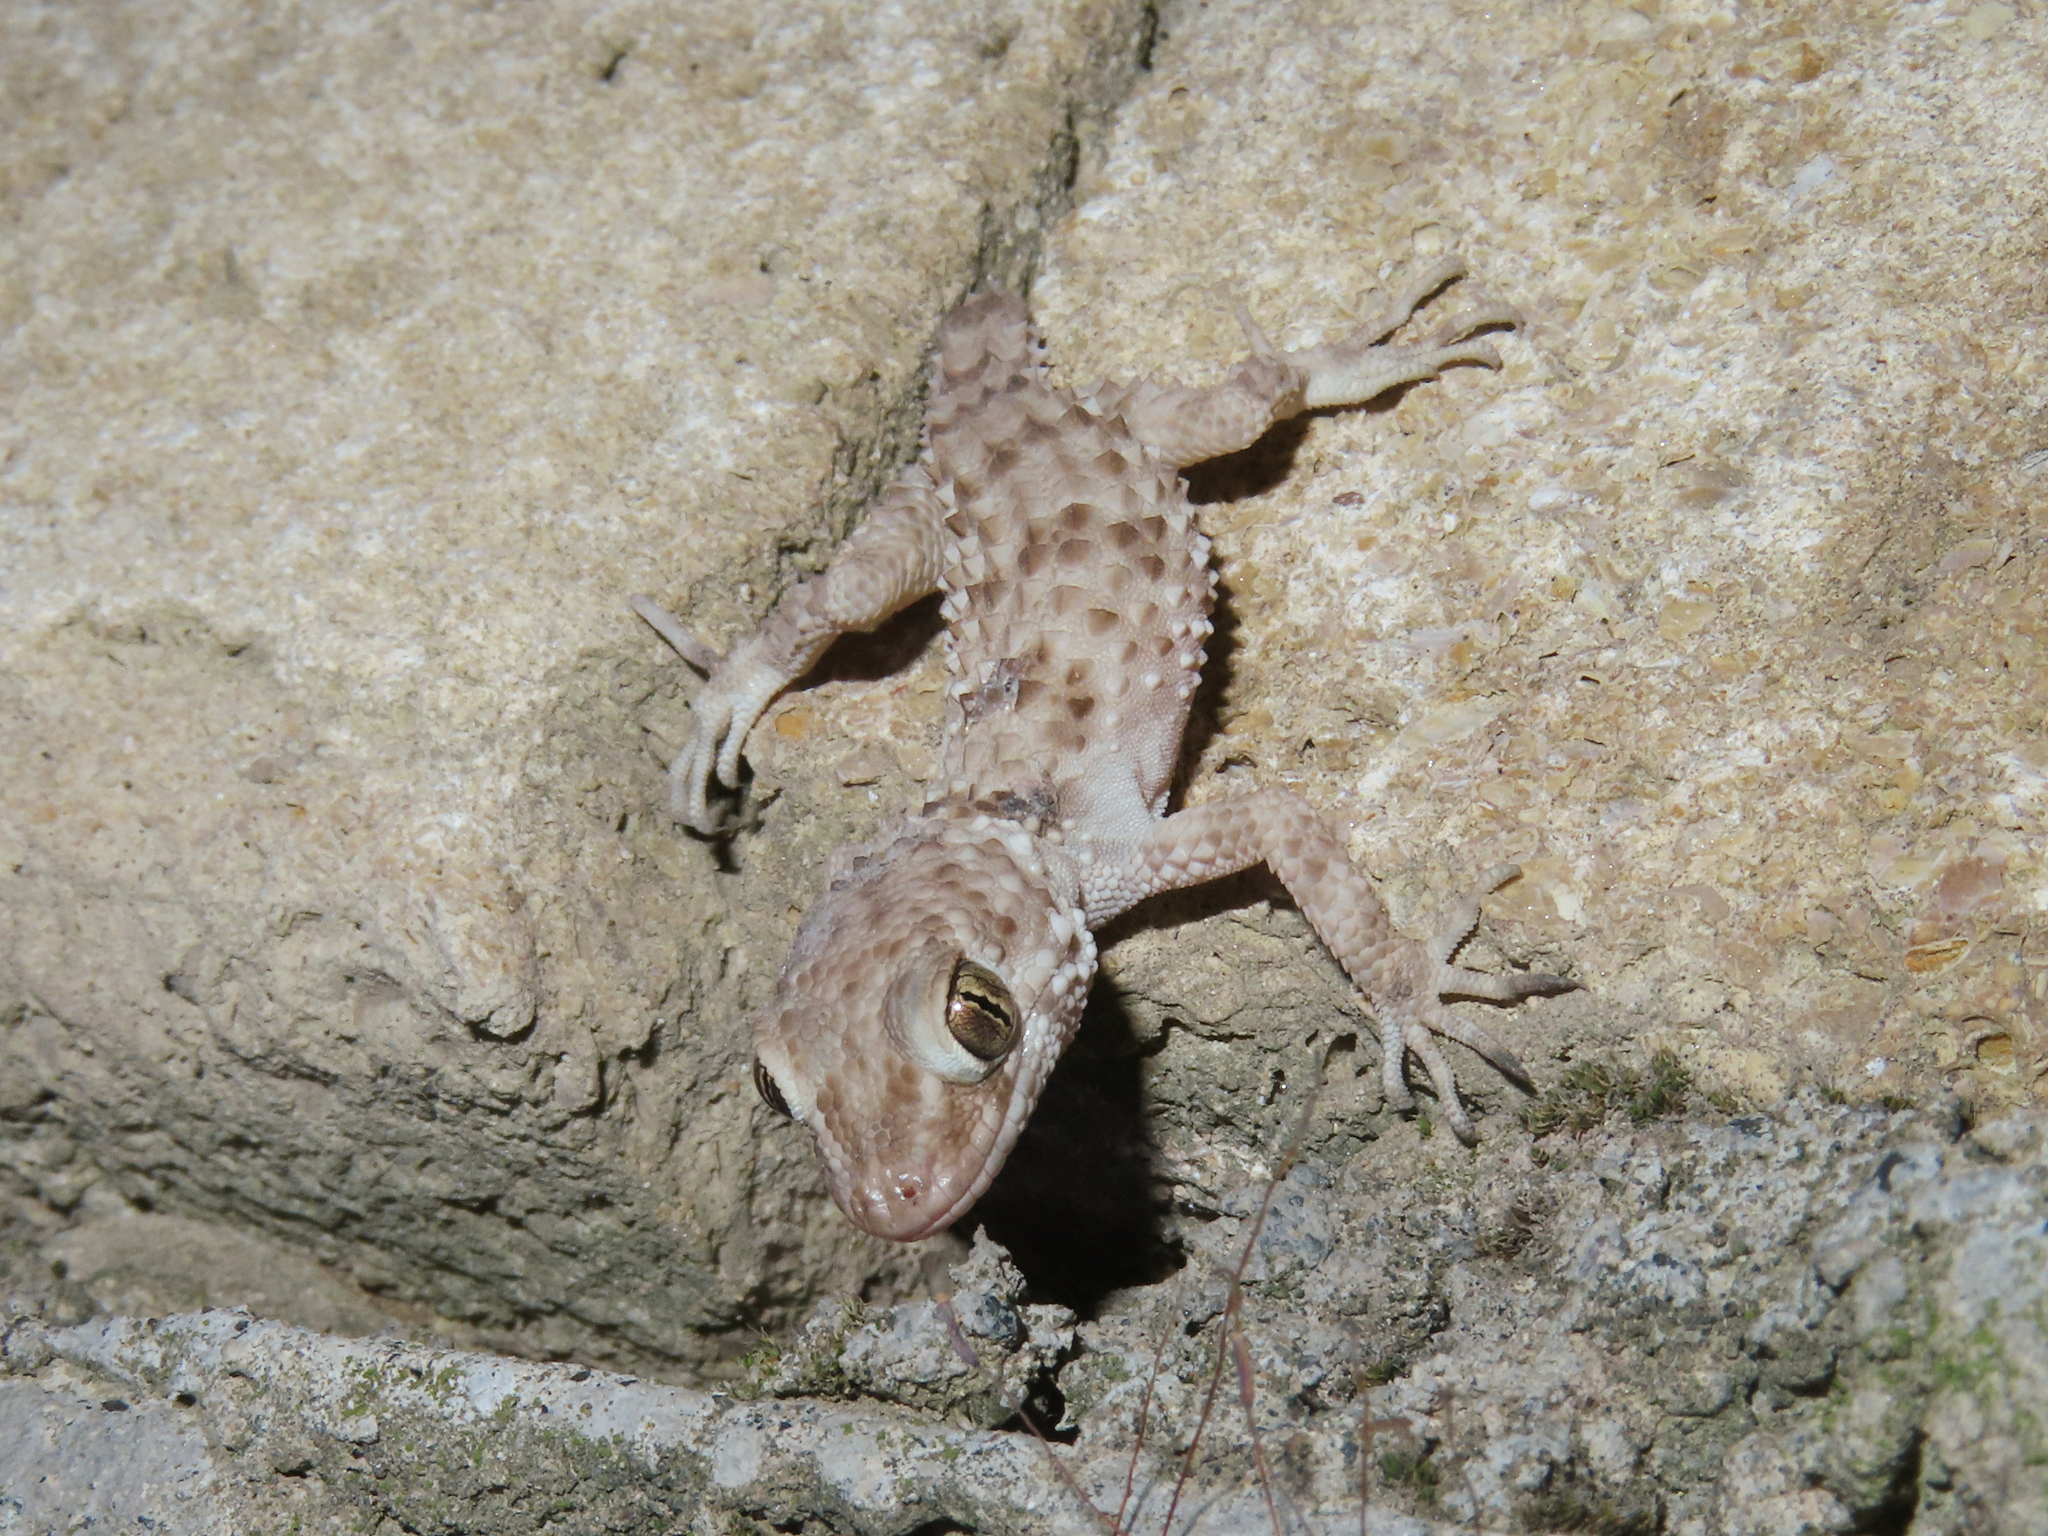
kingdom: Animalia
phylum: Chordata
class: Squamata
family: Gekkonidae
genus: Tenuidactylus
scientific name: Tenuidactylus caspius
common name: Caspian bent-toed gecko
